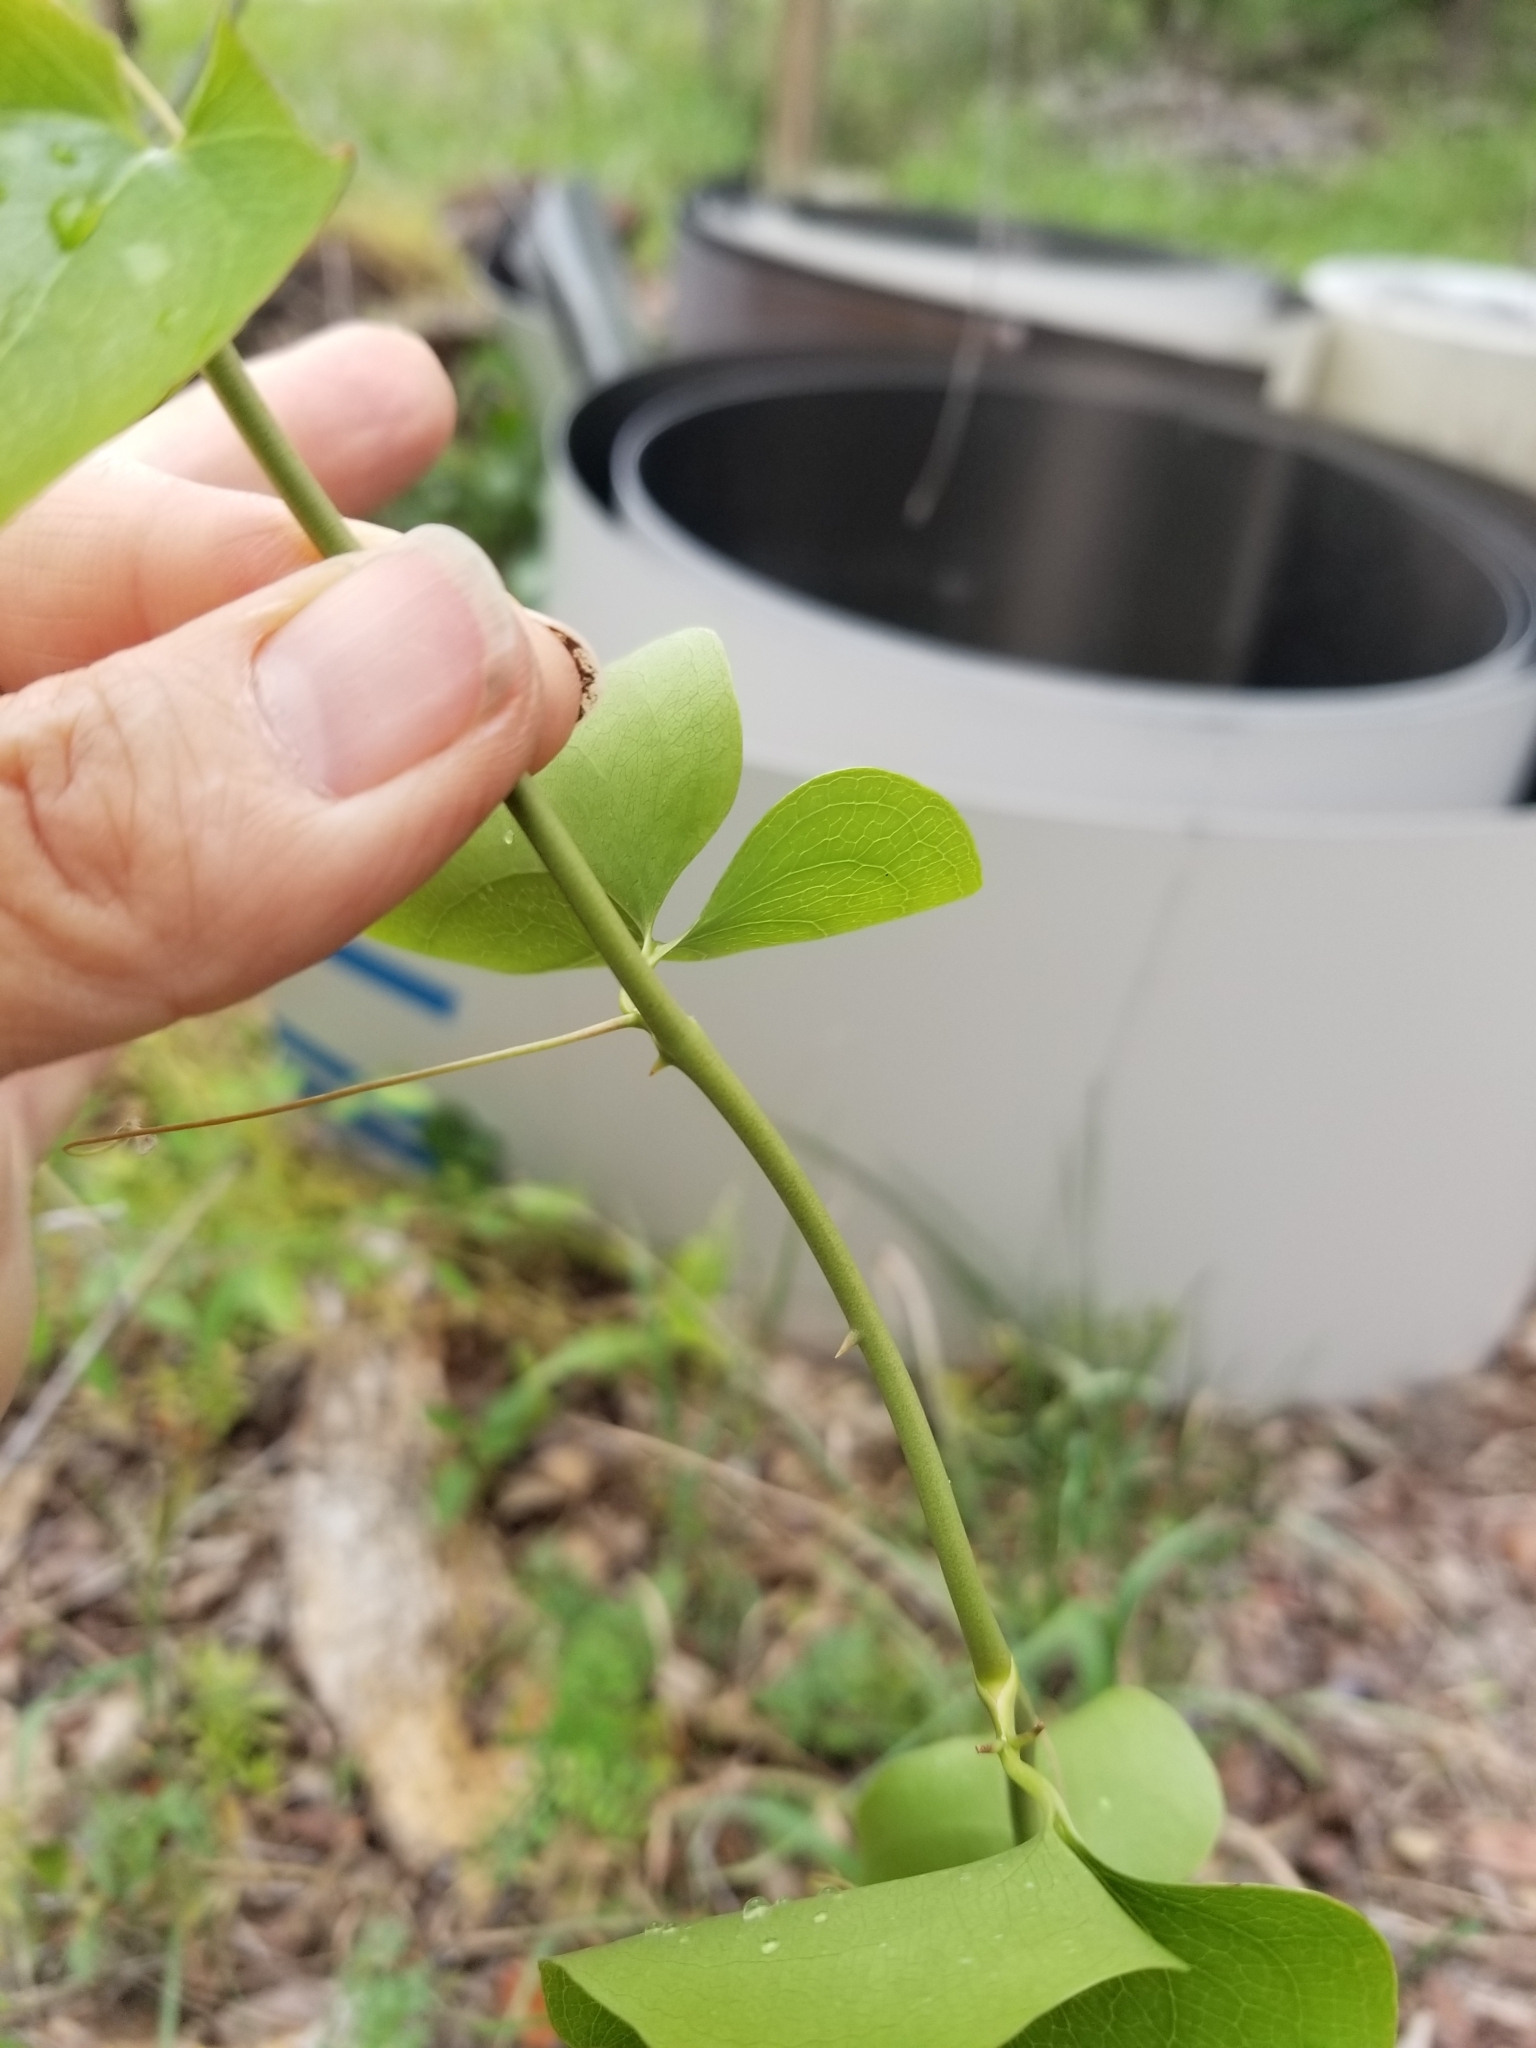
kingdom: Plantae
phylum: Tracheophyta
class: Liliopsida
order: Liliales
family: Smilacaceae
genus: Smilax
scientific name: Smilax bona-nox
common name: Catbrier
